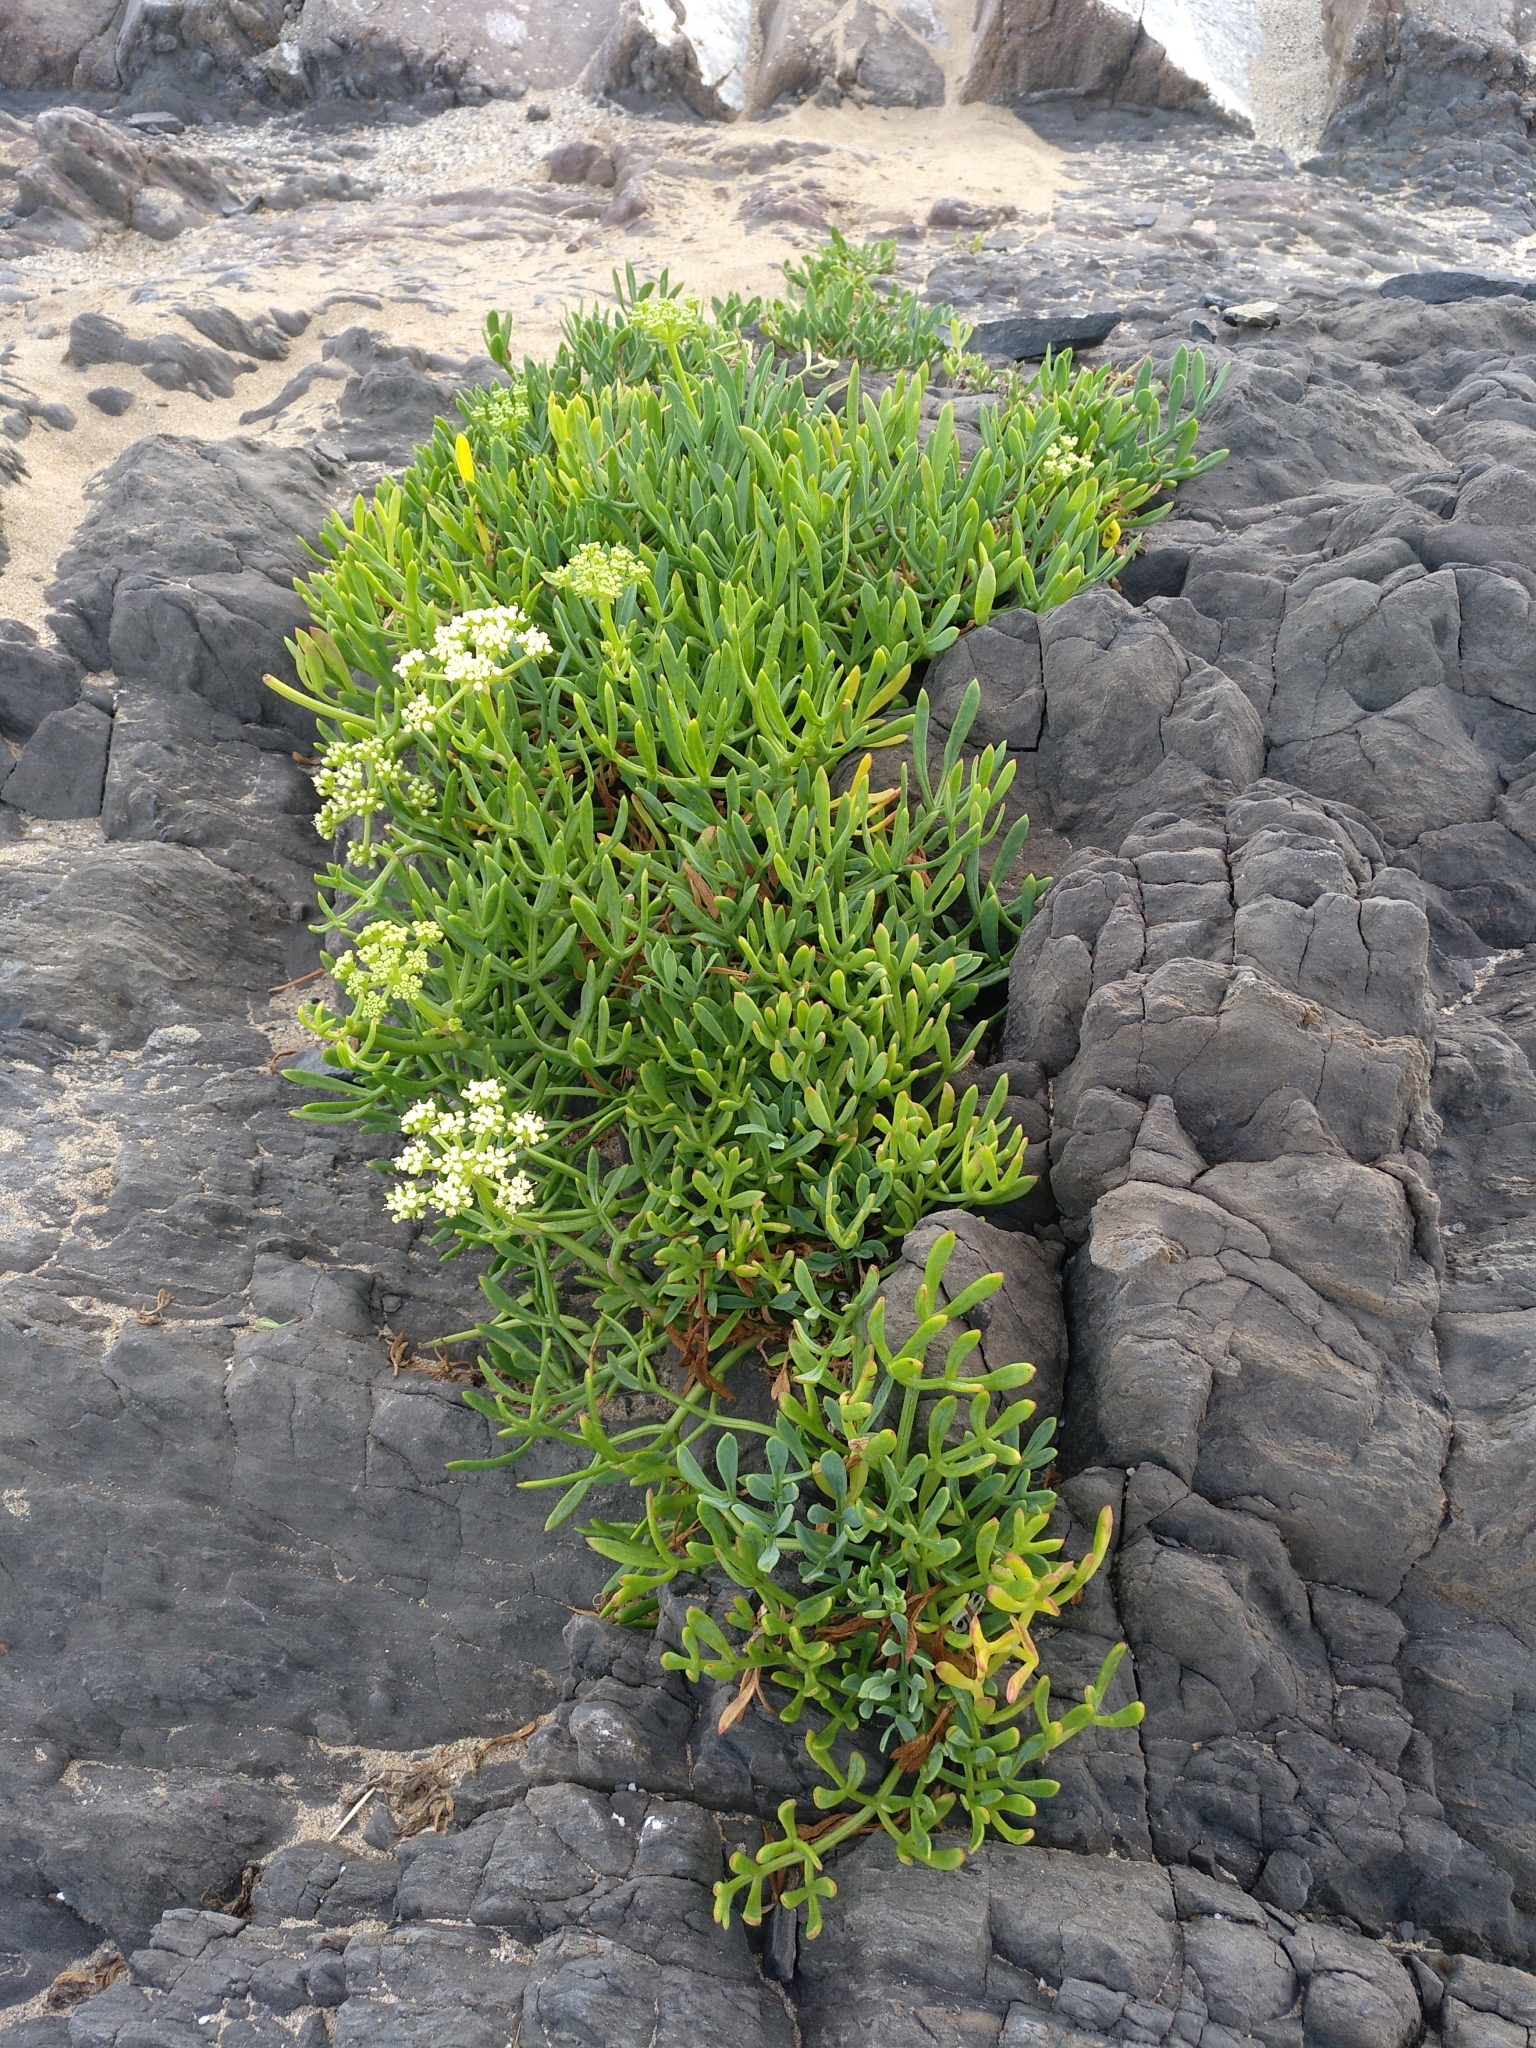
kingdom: Plantae
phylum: Tracheophyta
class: Magnoliopsida
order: Apiales
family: Apiaceae
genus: Crithmum
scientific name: Crithmum maritimum
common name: Rock samphire
